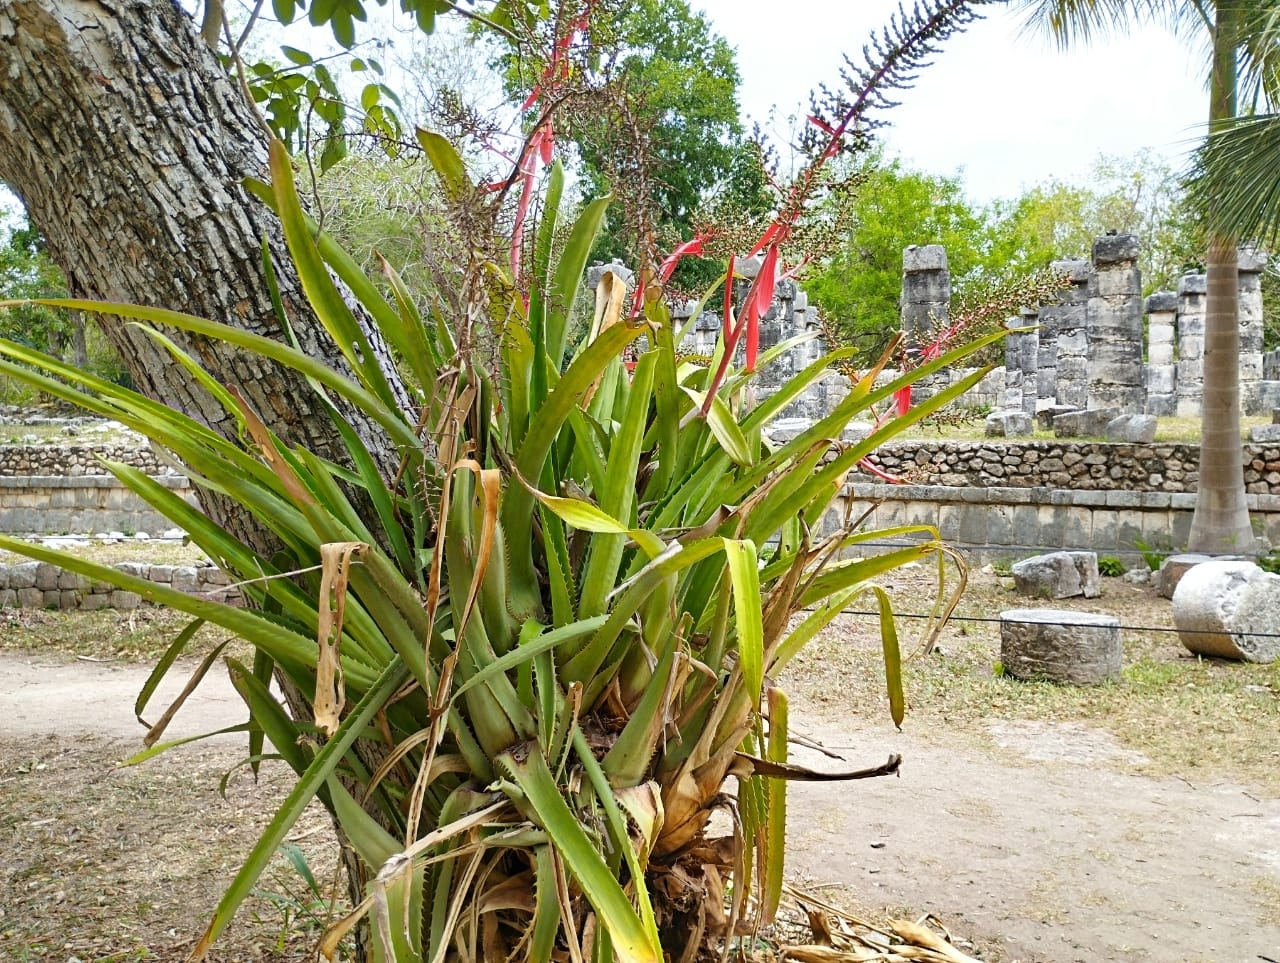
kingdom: Plantae
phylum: Tracheophyta
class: Liliopsida
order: Poales
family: Bromeliaceae
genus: Aechmea
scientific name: Aechmea bracteata
